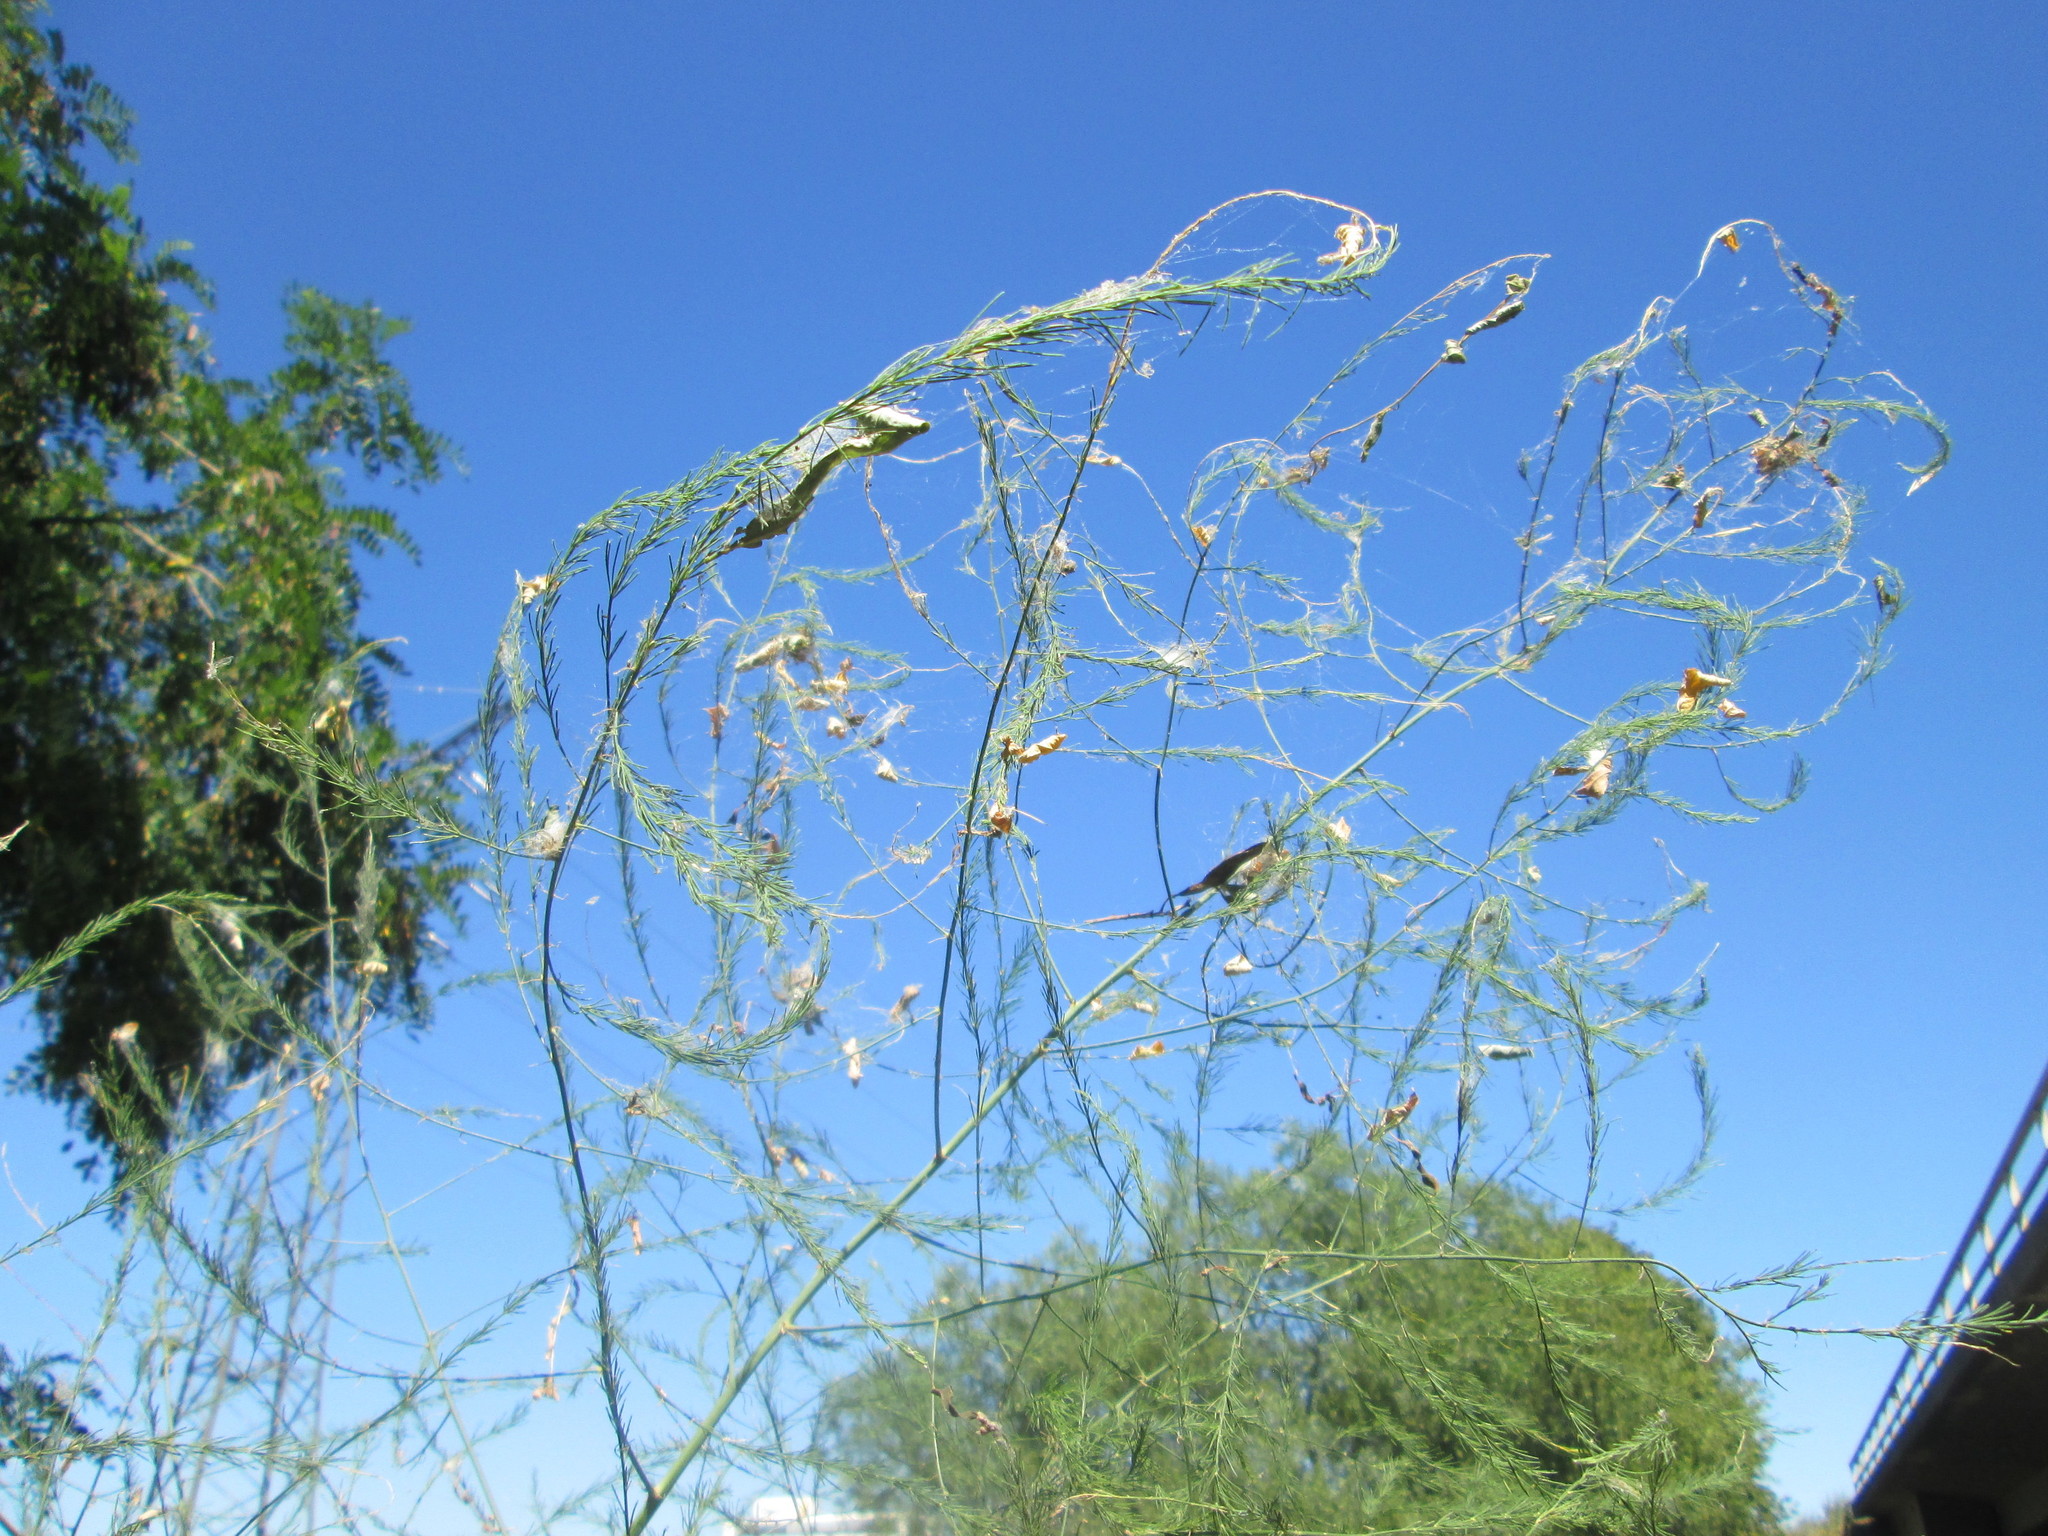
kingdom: Plantae
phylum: Tracheophyta
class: Liliopsida
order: Asparagales
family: Asparagaceae
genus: Asparagus
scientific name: Asparagus officinalis
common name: Garden asparagus
